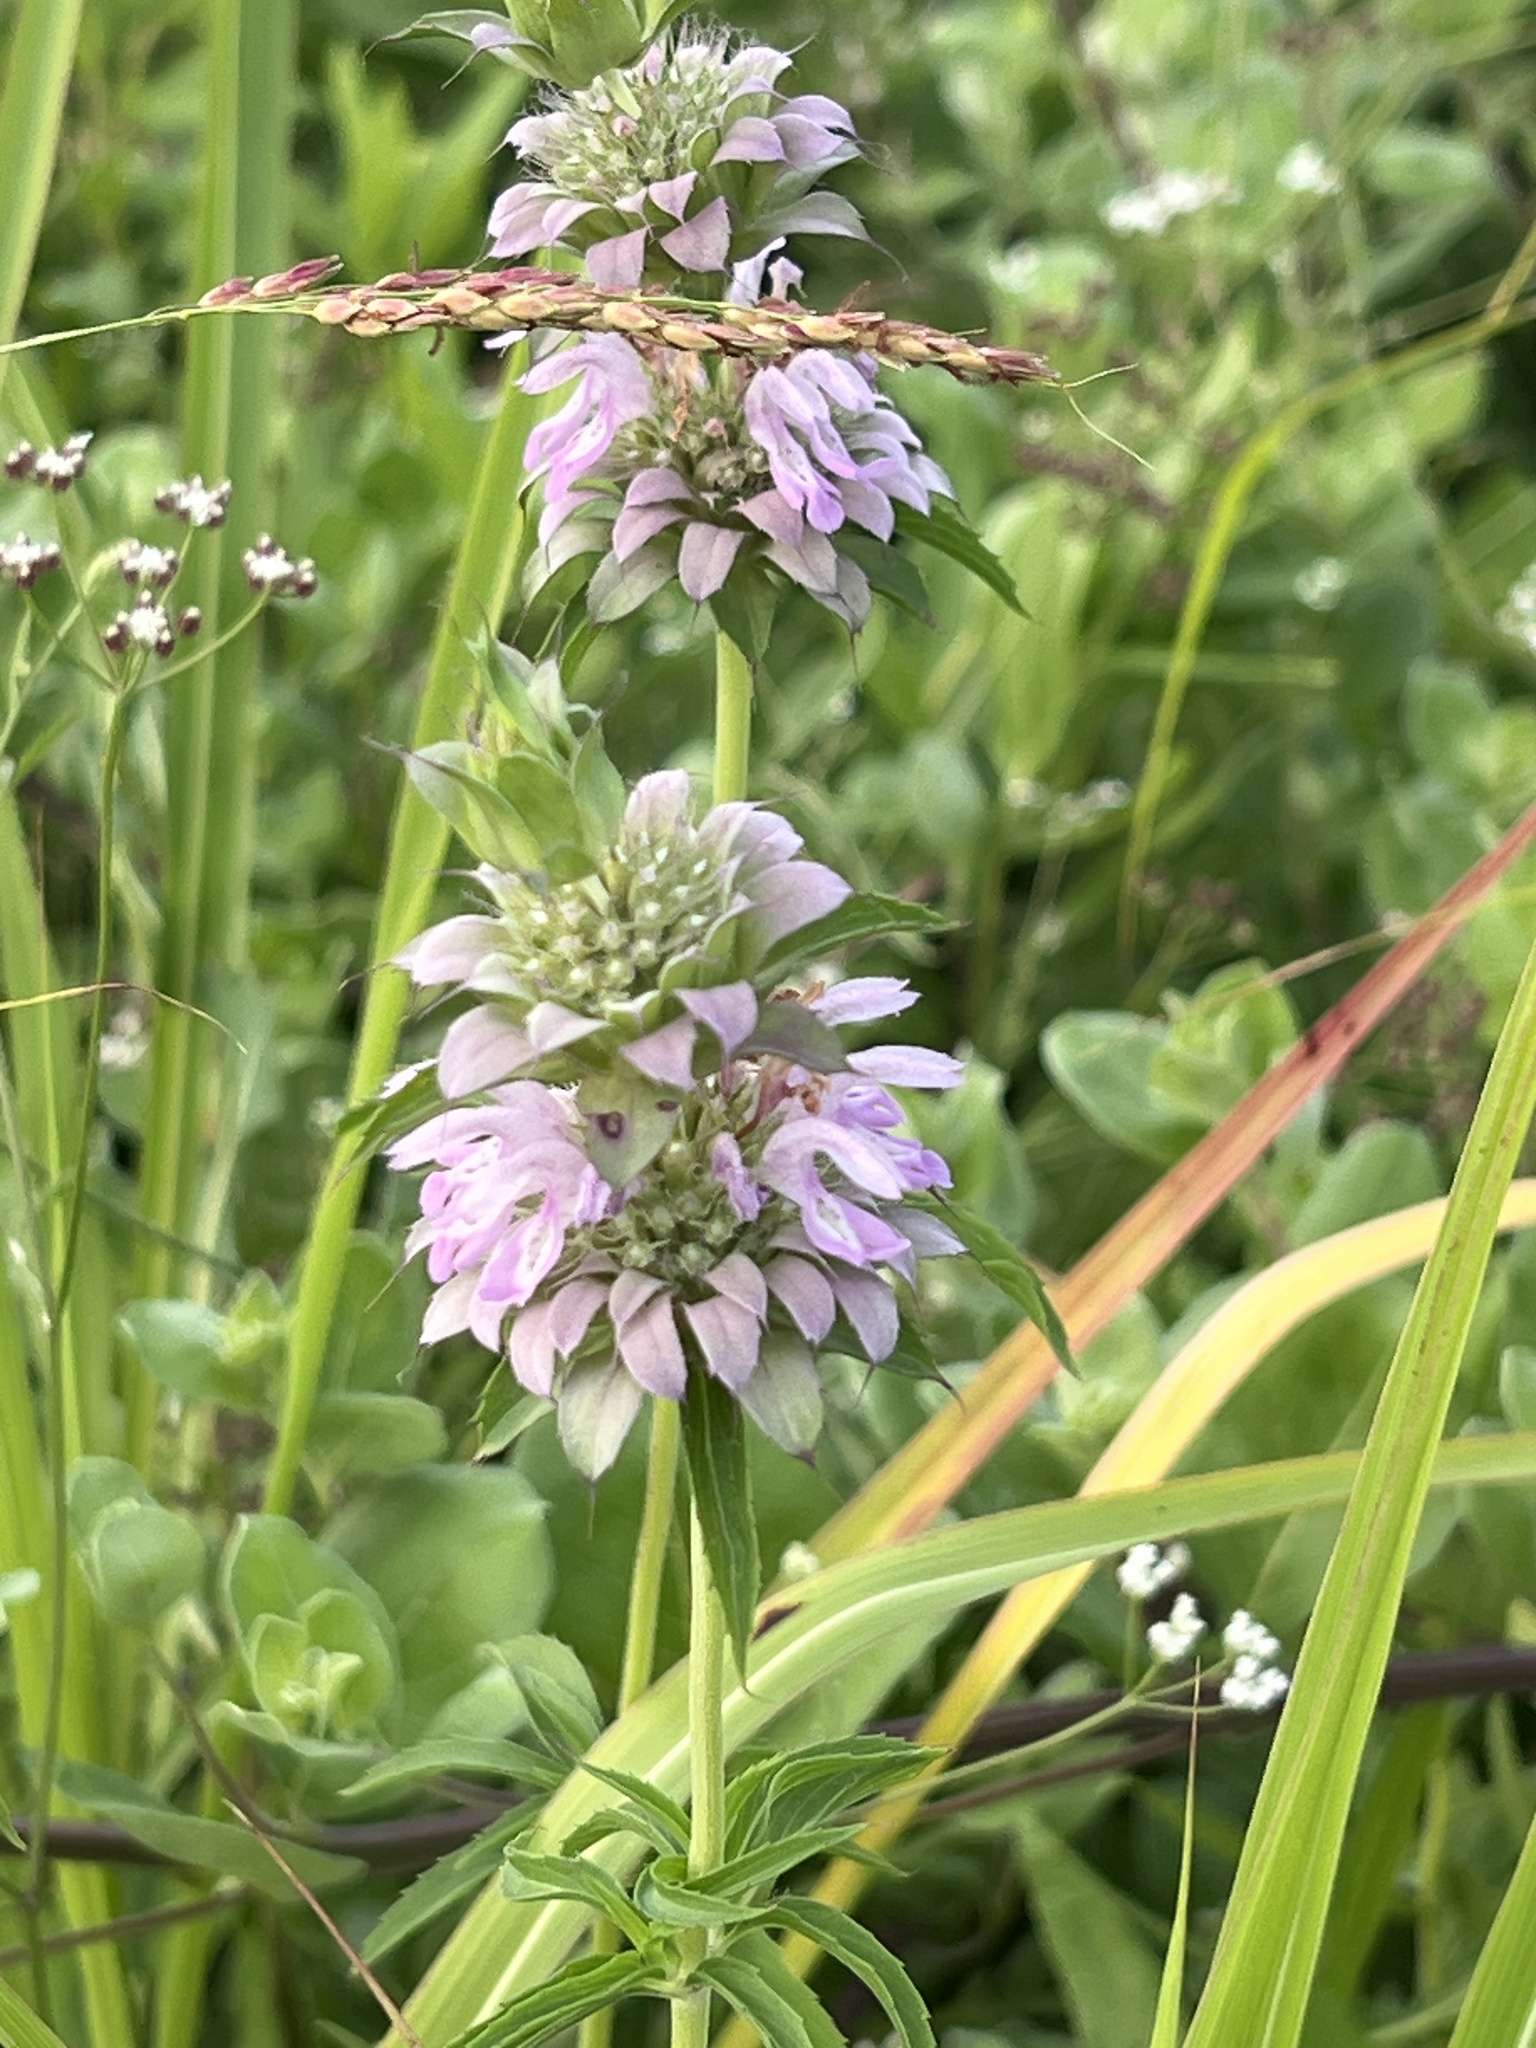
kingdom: Plantae
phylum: Tracheophyta
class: Magnoliopsida
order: Lamiales
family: Lamiaceae
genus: Monarda
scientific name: Monarda citriodora
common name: Lemon beebalm
